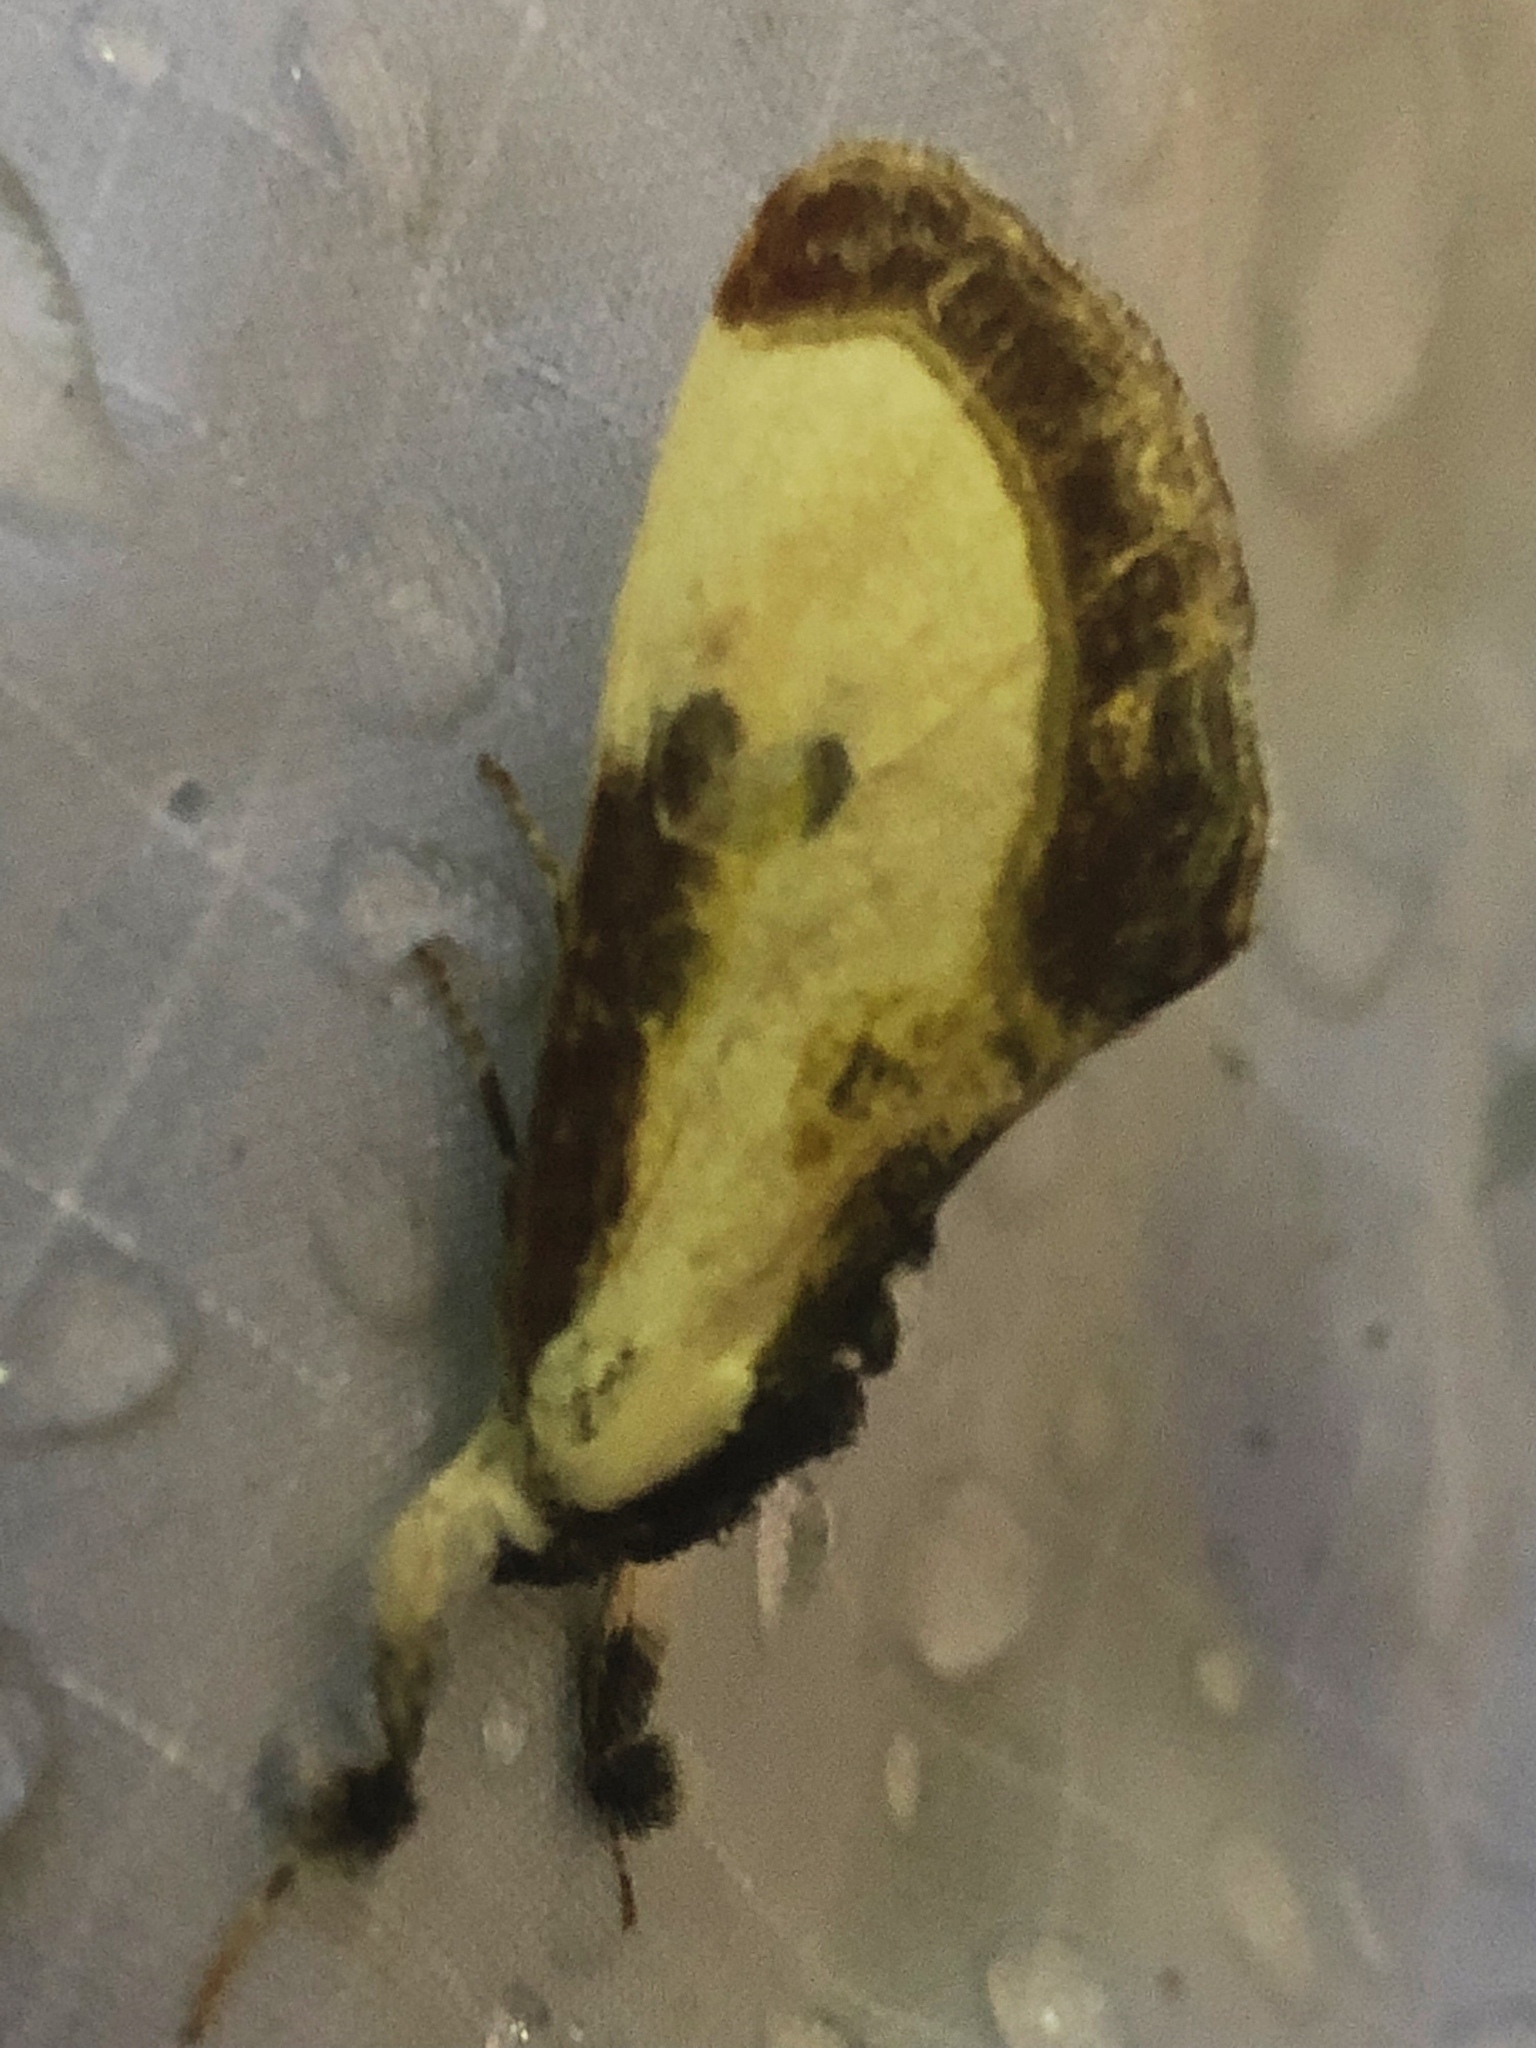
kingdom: Animalia
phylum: Arthropoda
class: Insecta
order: Lepidoptera
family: Noctuidae
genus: Eudryas
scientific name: Eudryas grata
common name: Beautiful wood-nymph
